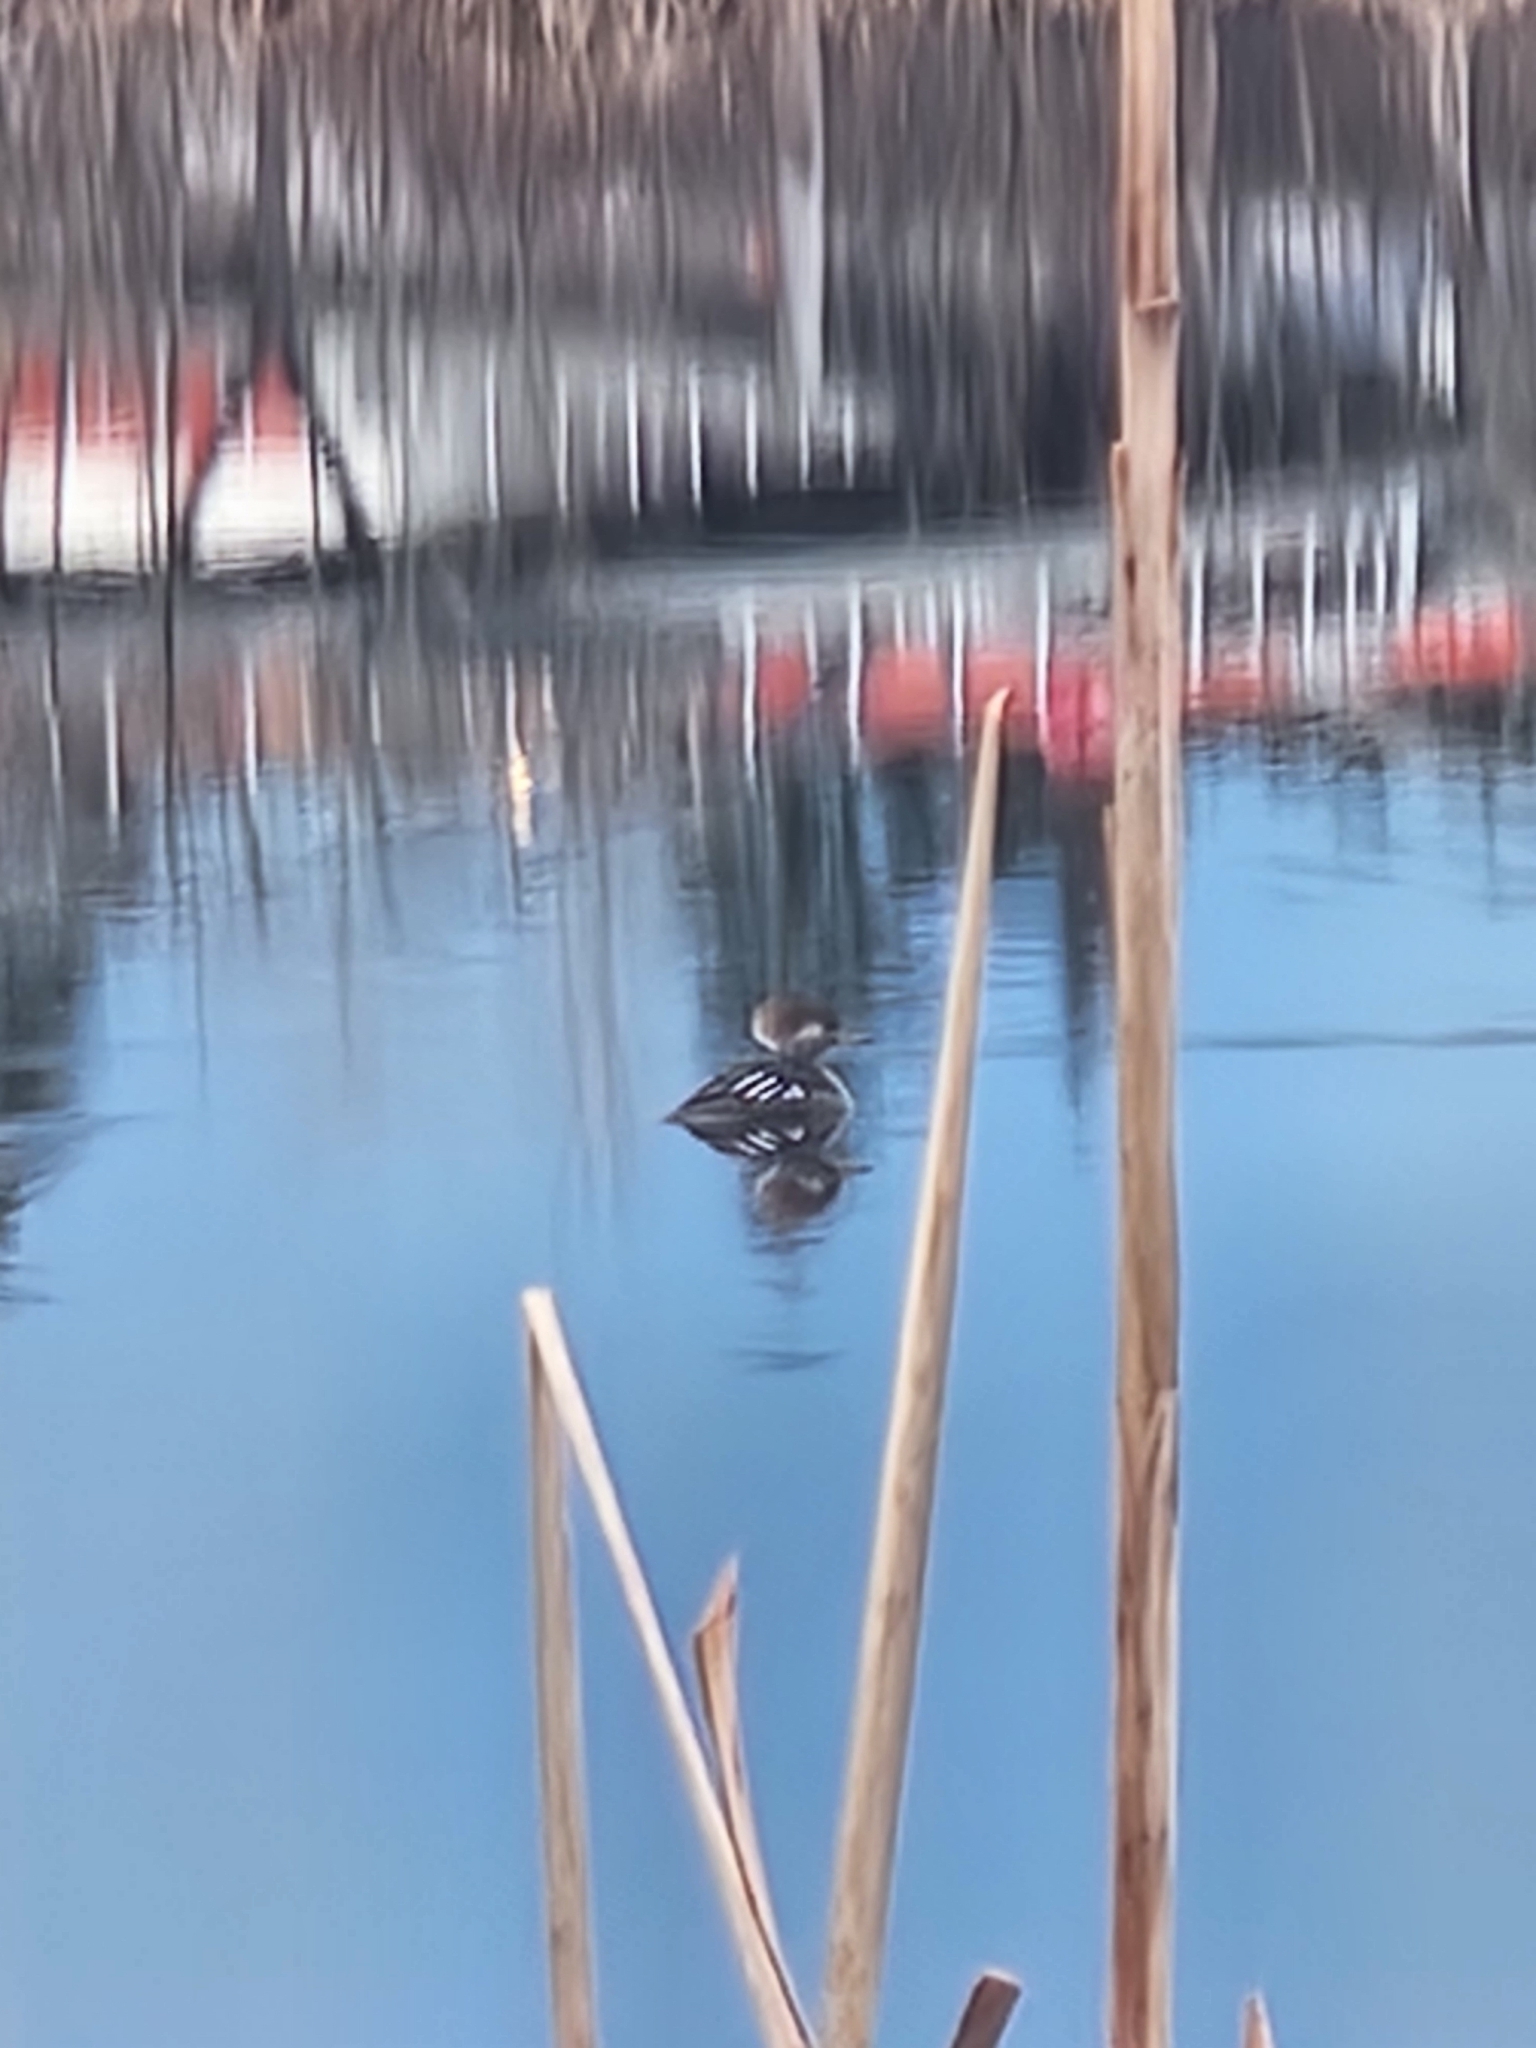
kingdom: Animalia
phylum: Chordata
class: Aves
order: Anseriformes
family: Anatidae
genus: Lophodytes
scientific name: Lophodytes cucullatus
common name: Hooded merganser
